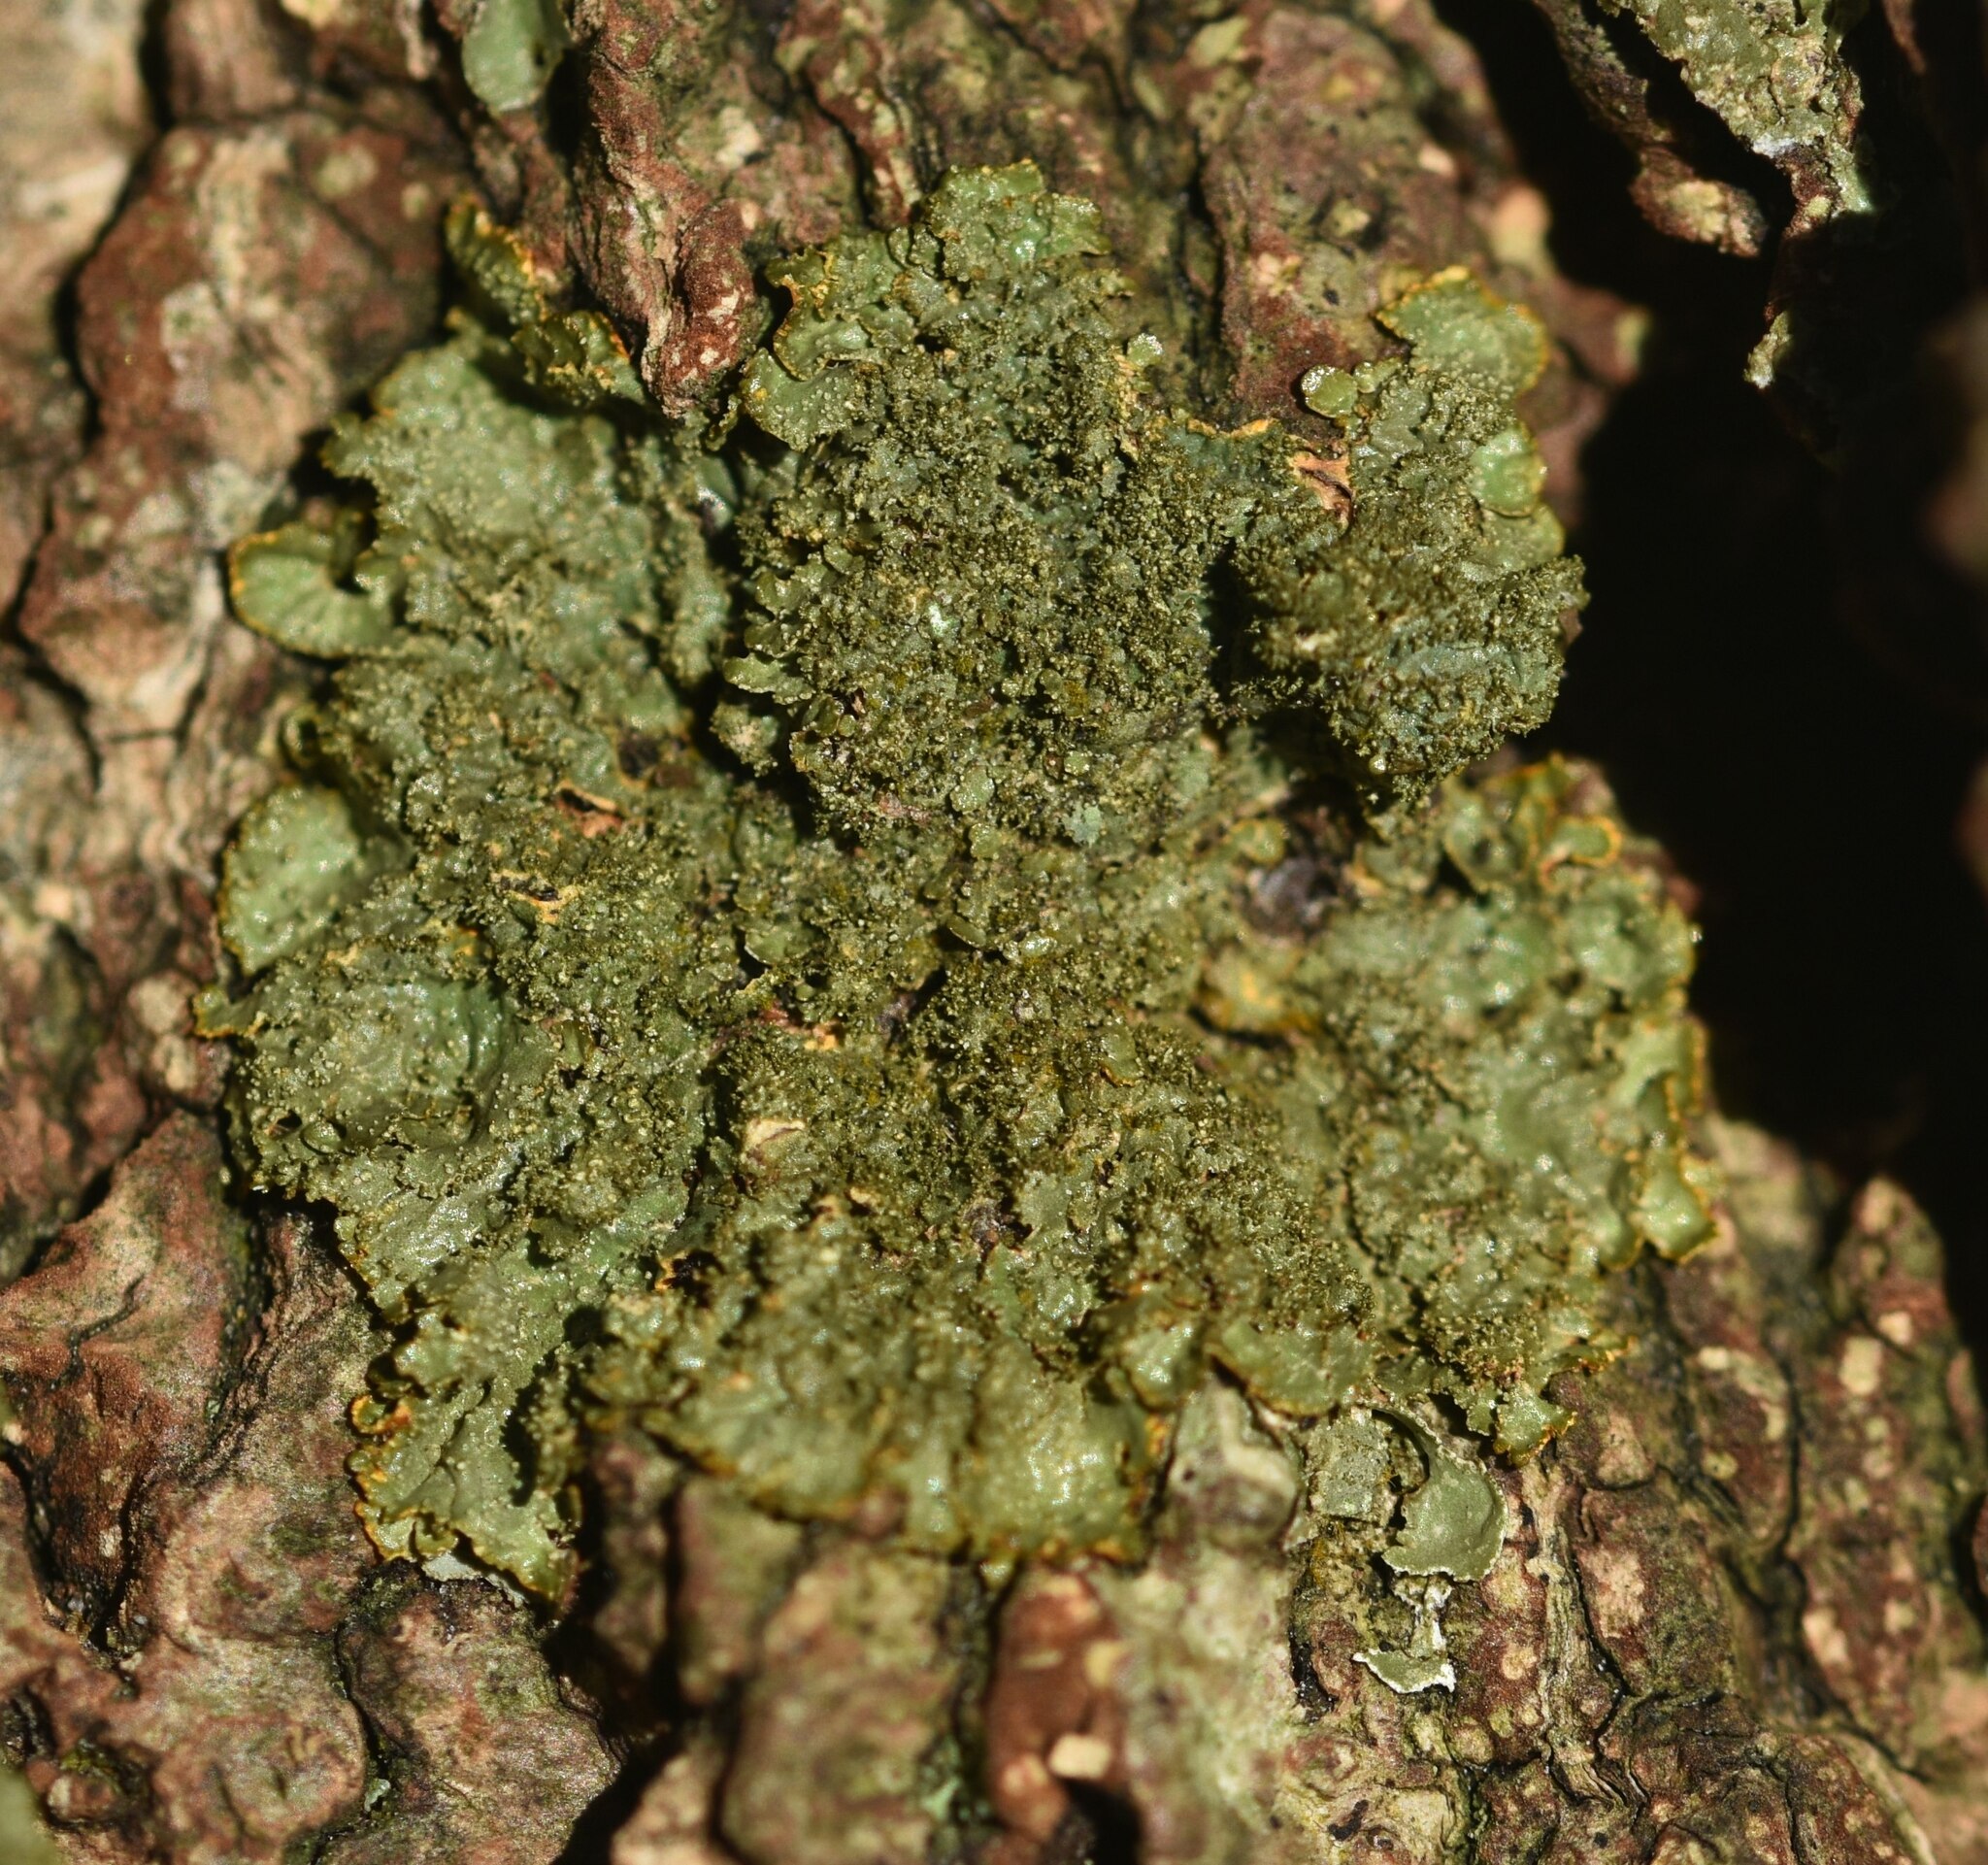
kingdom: Fungi
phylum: Ascomycota
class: Lecanoromycetes
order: Lecanorales
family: Parmeliaceae
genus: Melanelixia
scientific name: Melanelixia glabratula
